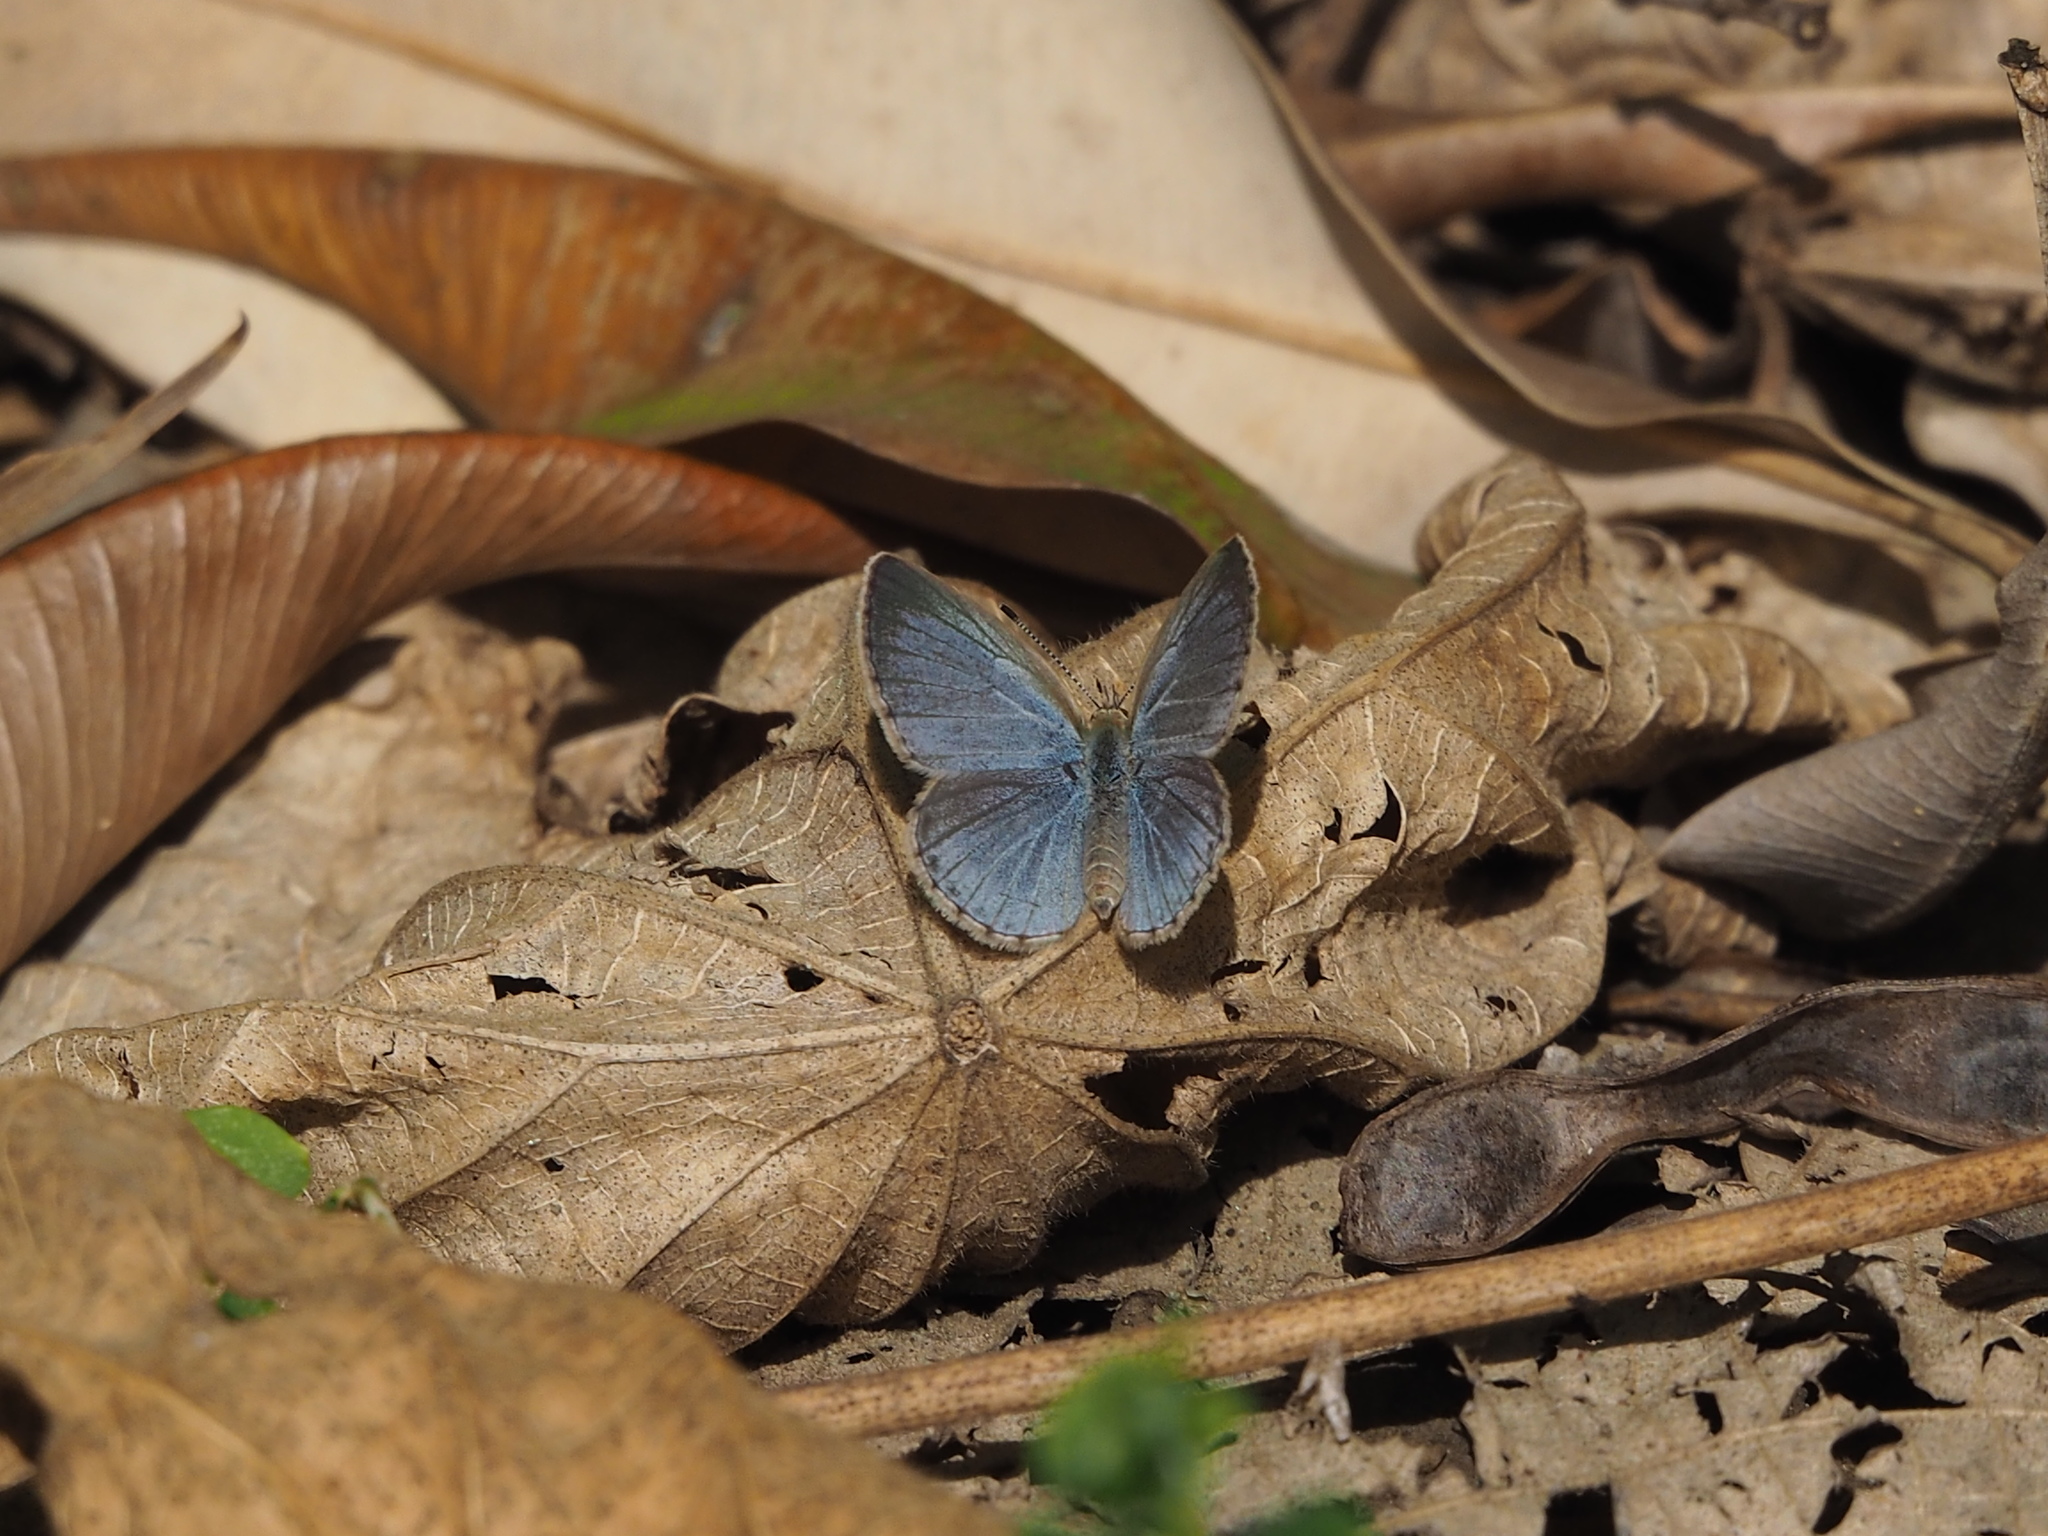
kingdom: Animalia
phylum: Arthropoda
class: Insecta
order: Lepidoptera
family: Lycaenidae
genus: Pseudozizeeria
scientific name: Pseudozizeeria maha
